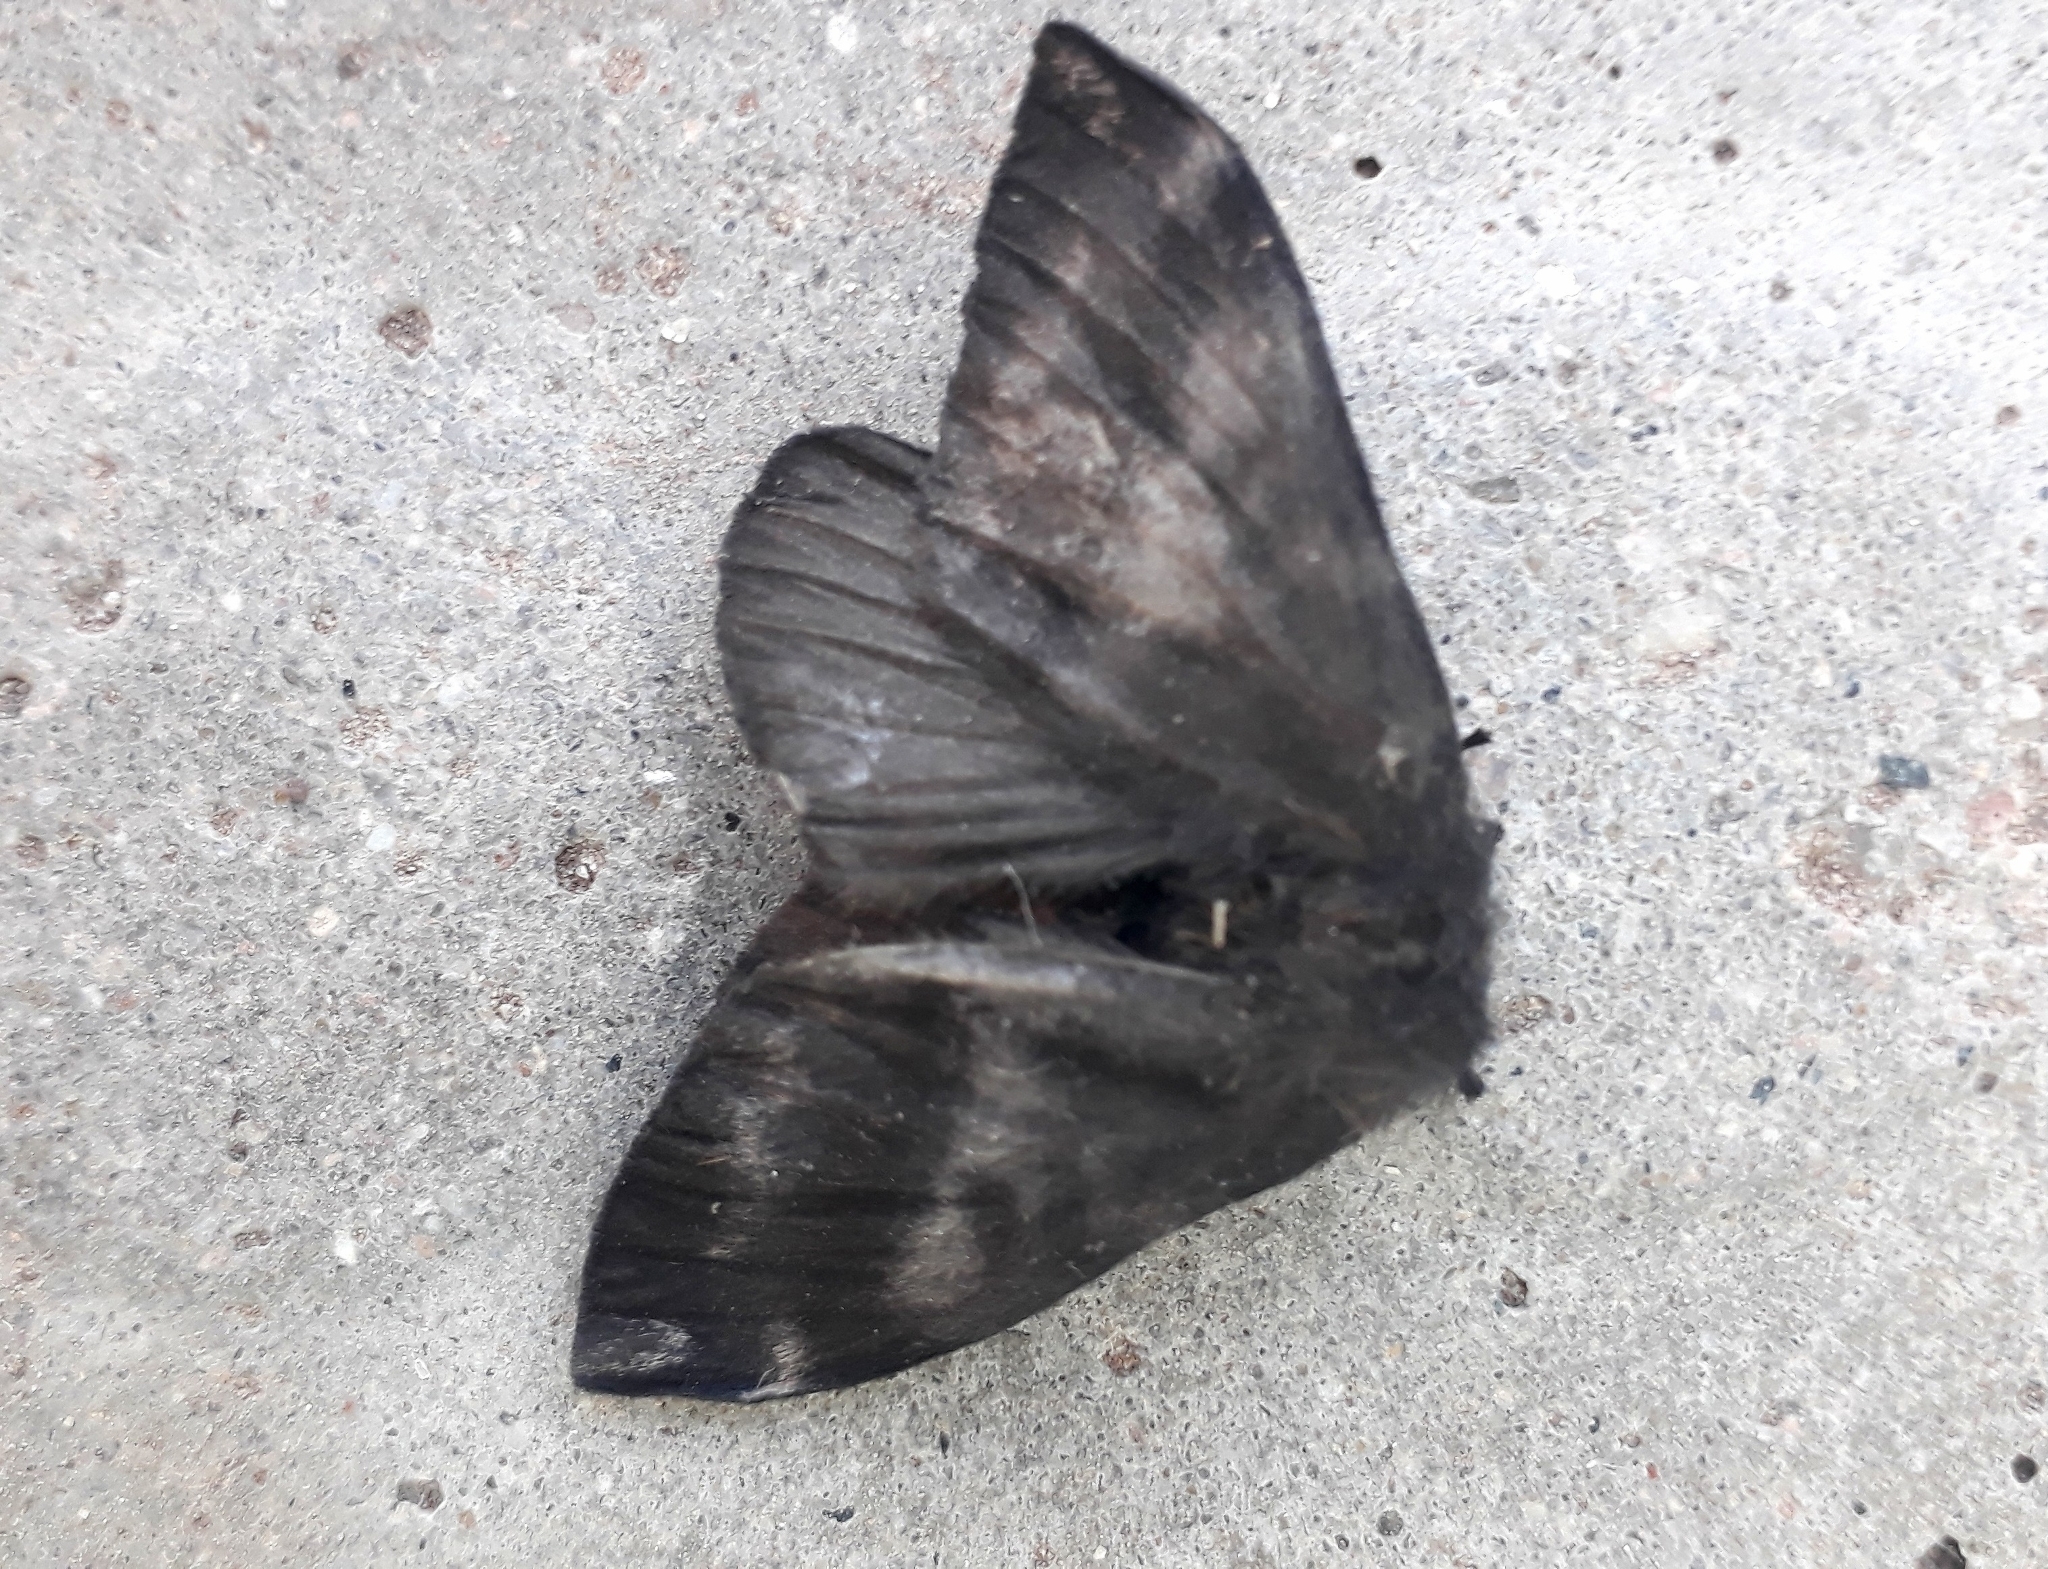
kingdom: Animalia
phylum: Arthropoda
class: Insecta
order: Lepidoptera
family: Saturniidae
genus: Hylesia
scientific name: Hylesia nigricans
